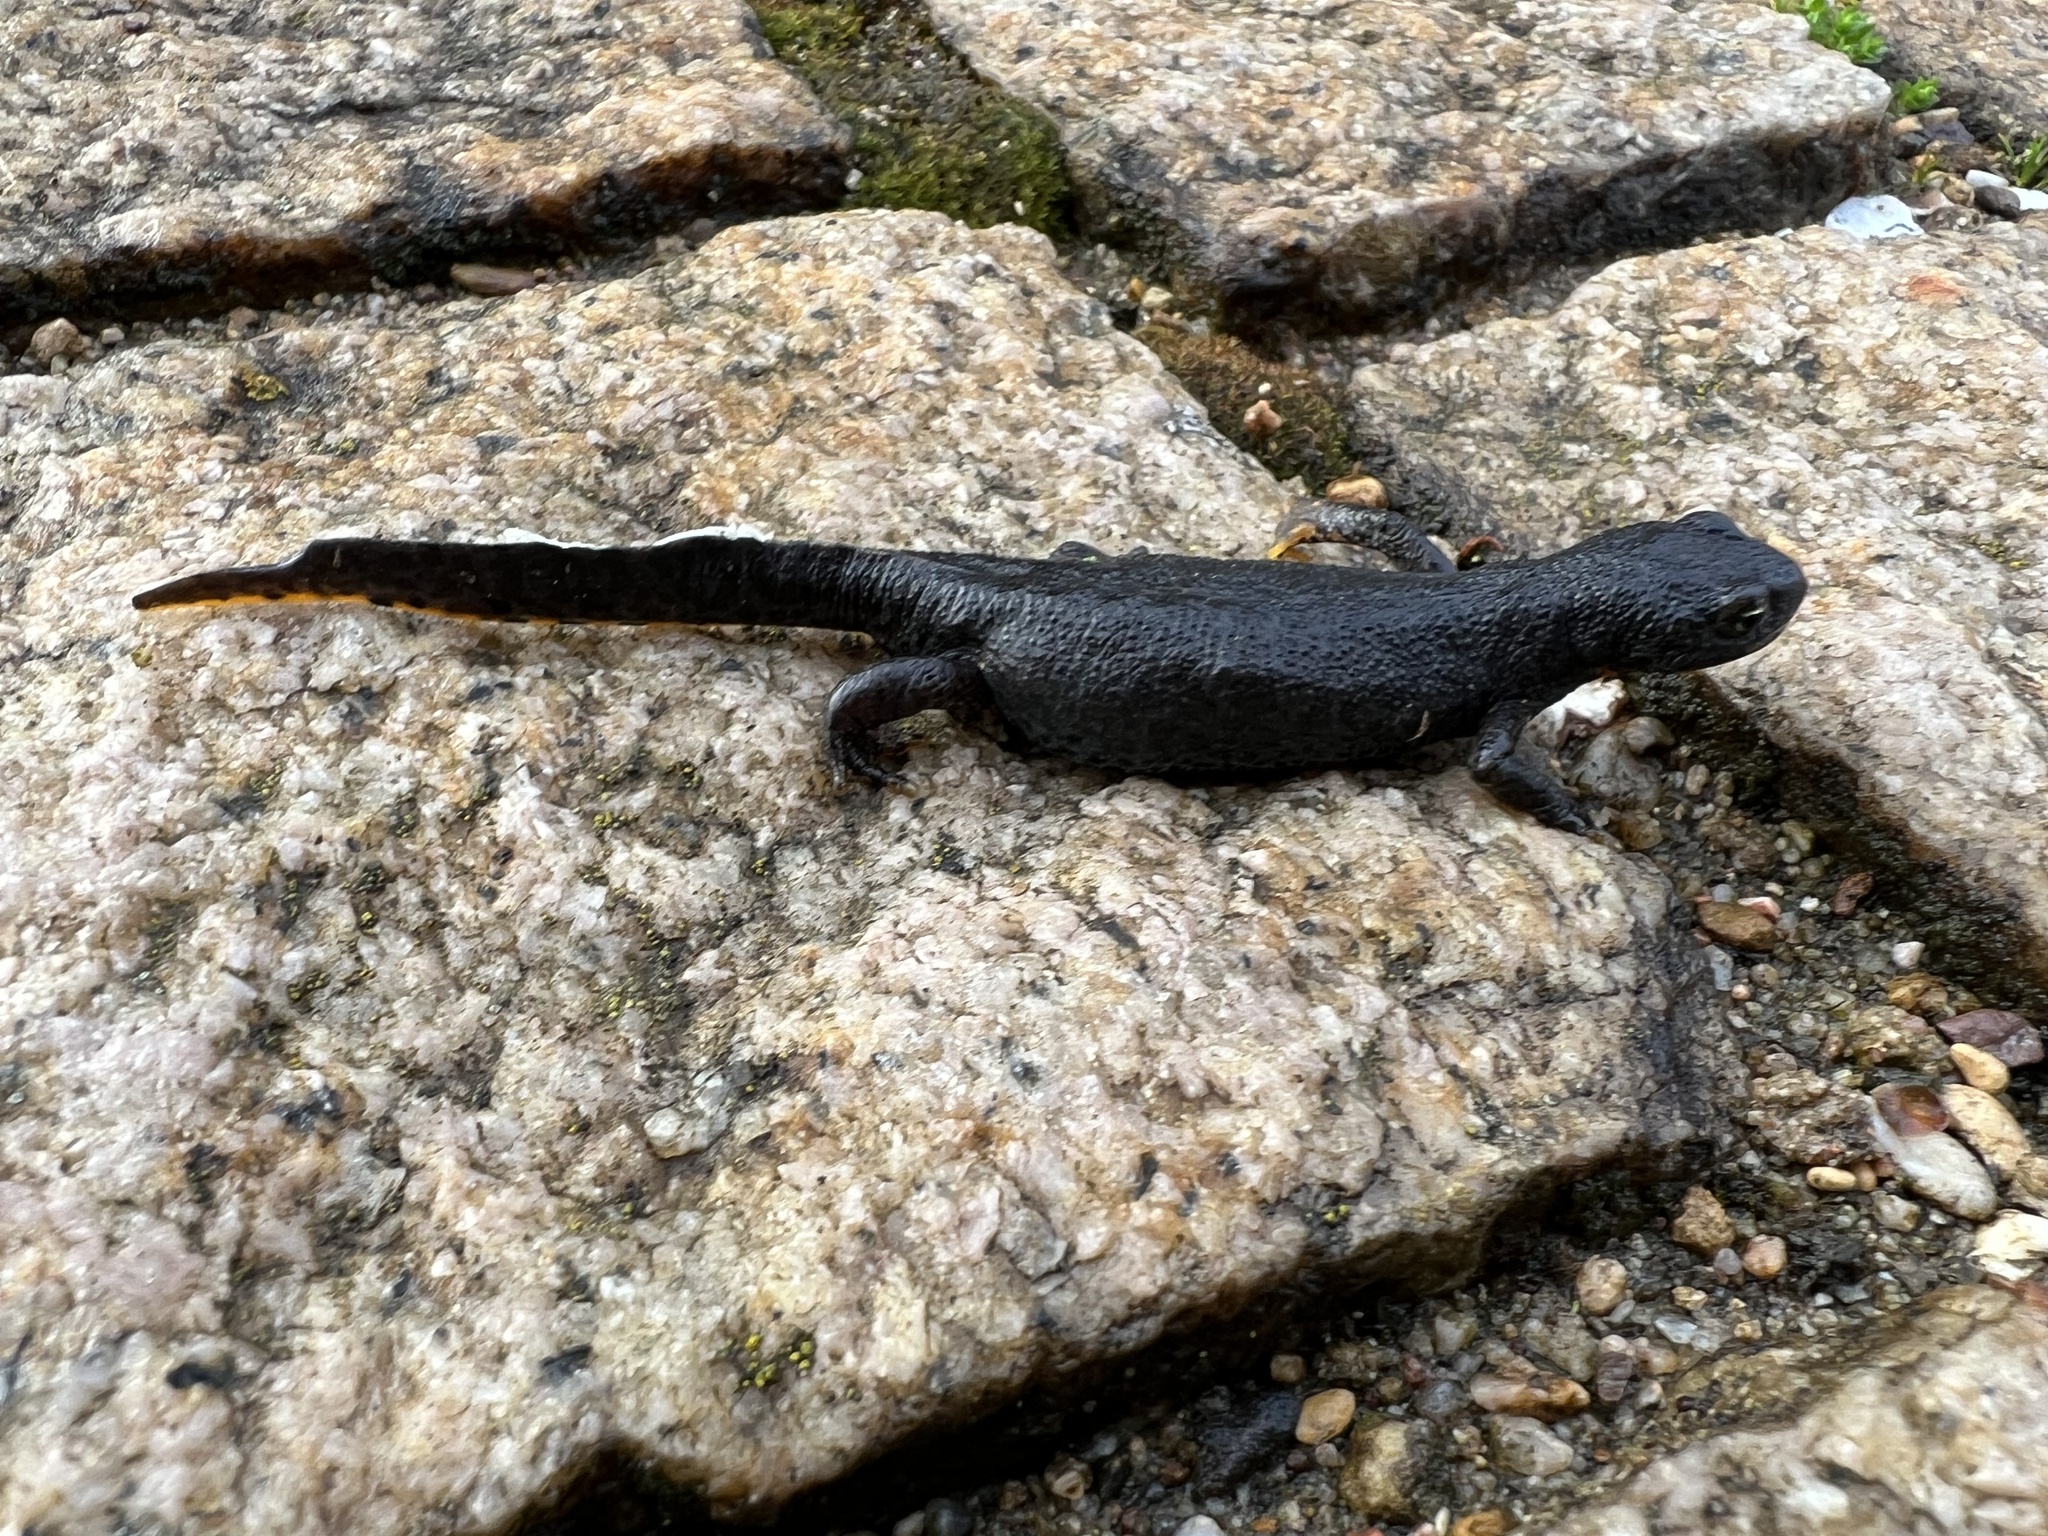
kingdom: Animalia
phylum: Chordata
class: Amphibia
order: Caudata
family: Salamandridae
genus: Ichthyosaura
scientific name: Ichthyosaura alpestris
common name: Alpine newt
